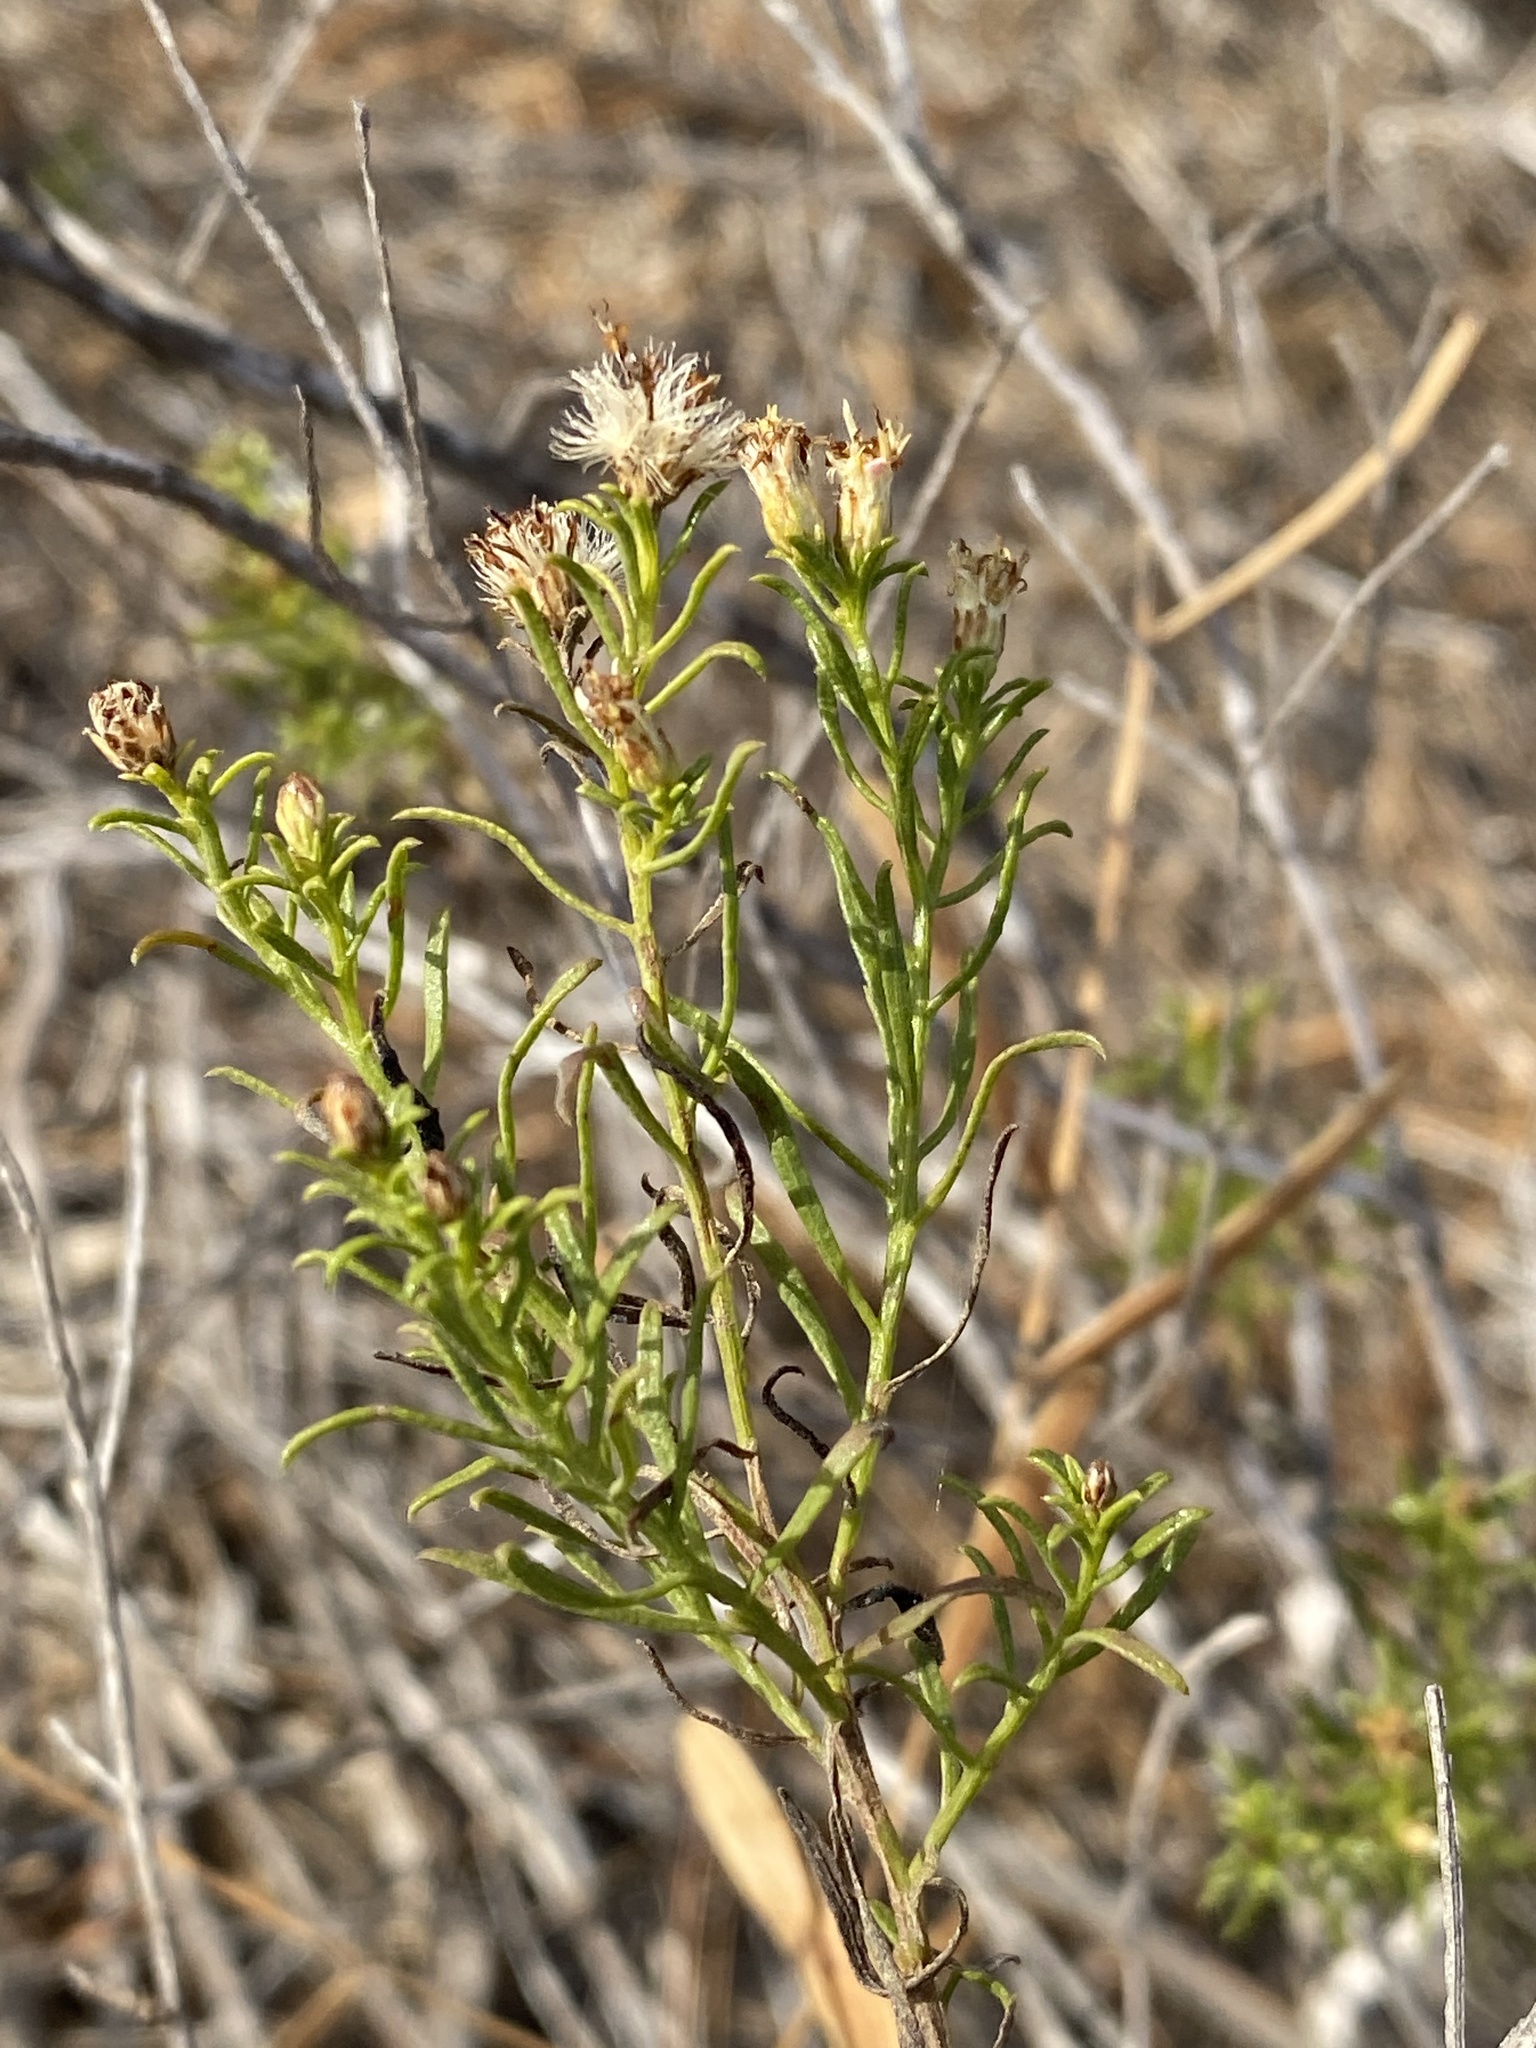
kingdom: Plantae
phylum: Tracheophyta
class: Magnoliopsida
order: Asterales
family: Asteraceae
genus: Medranoa
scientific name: Medranoa palmeri
